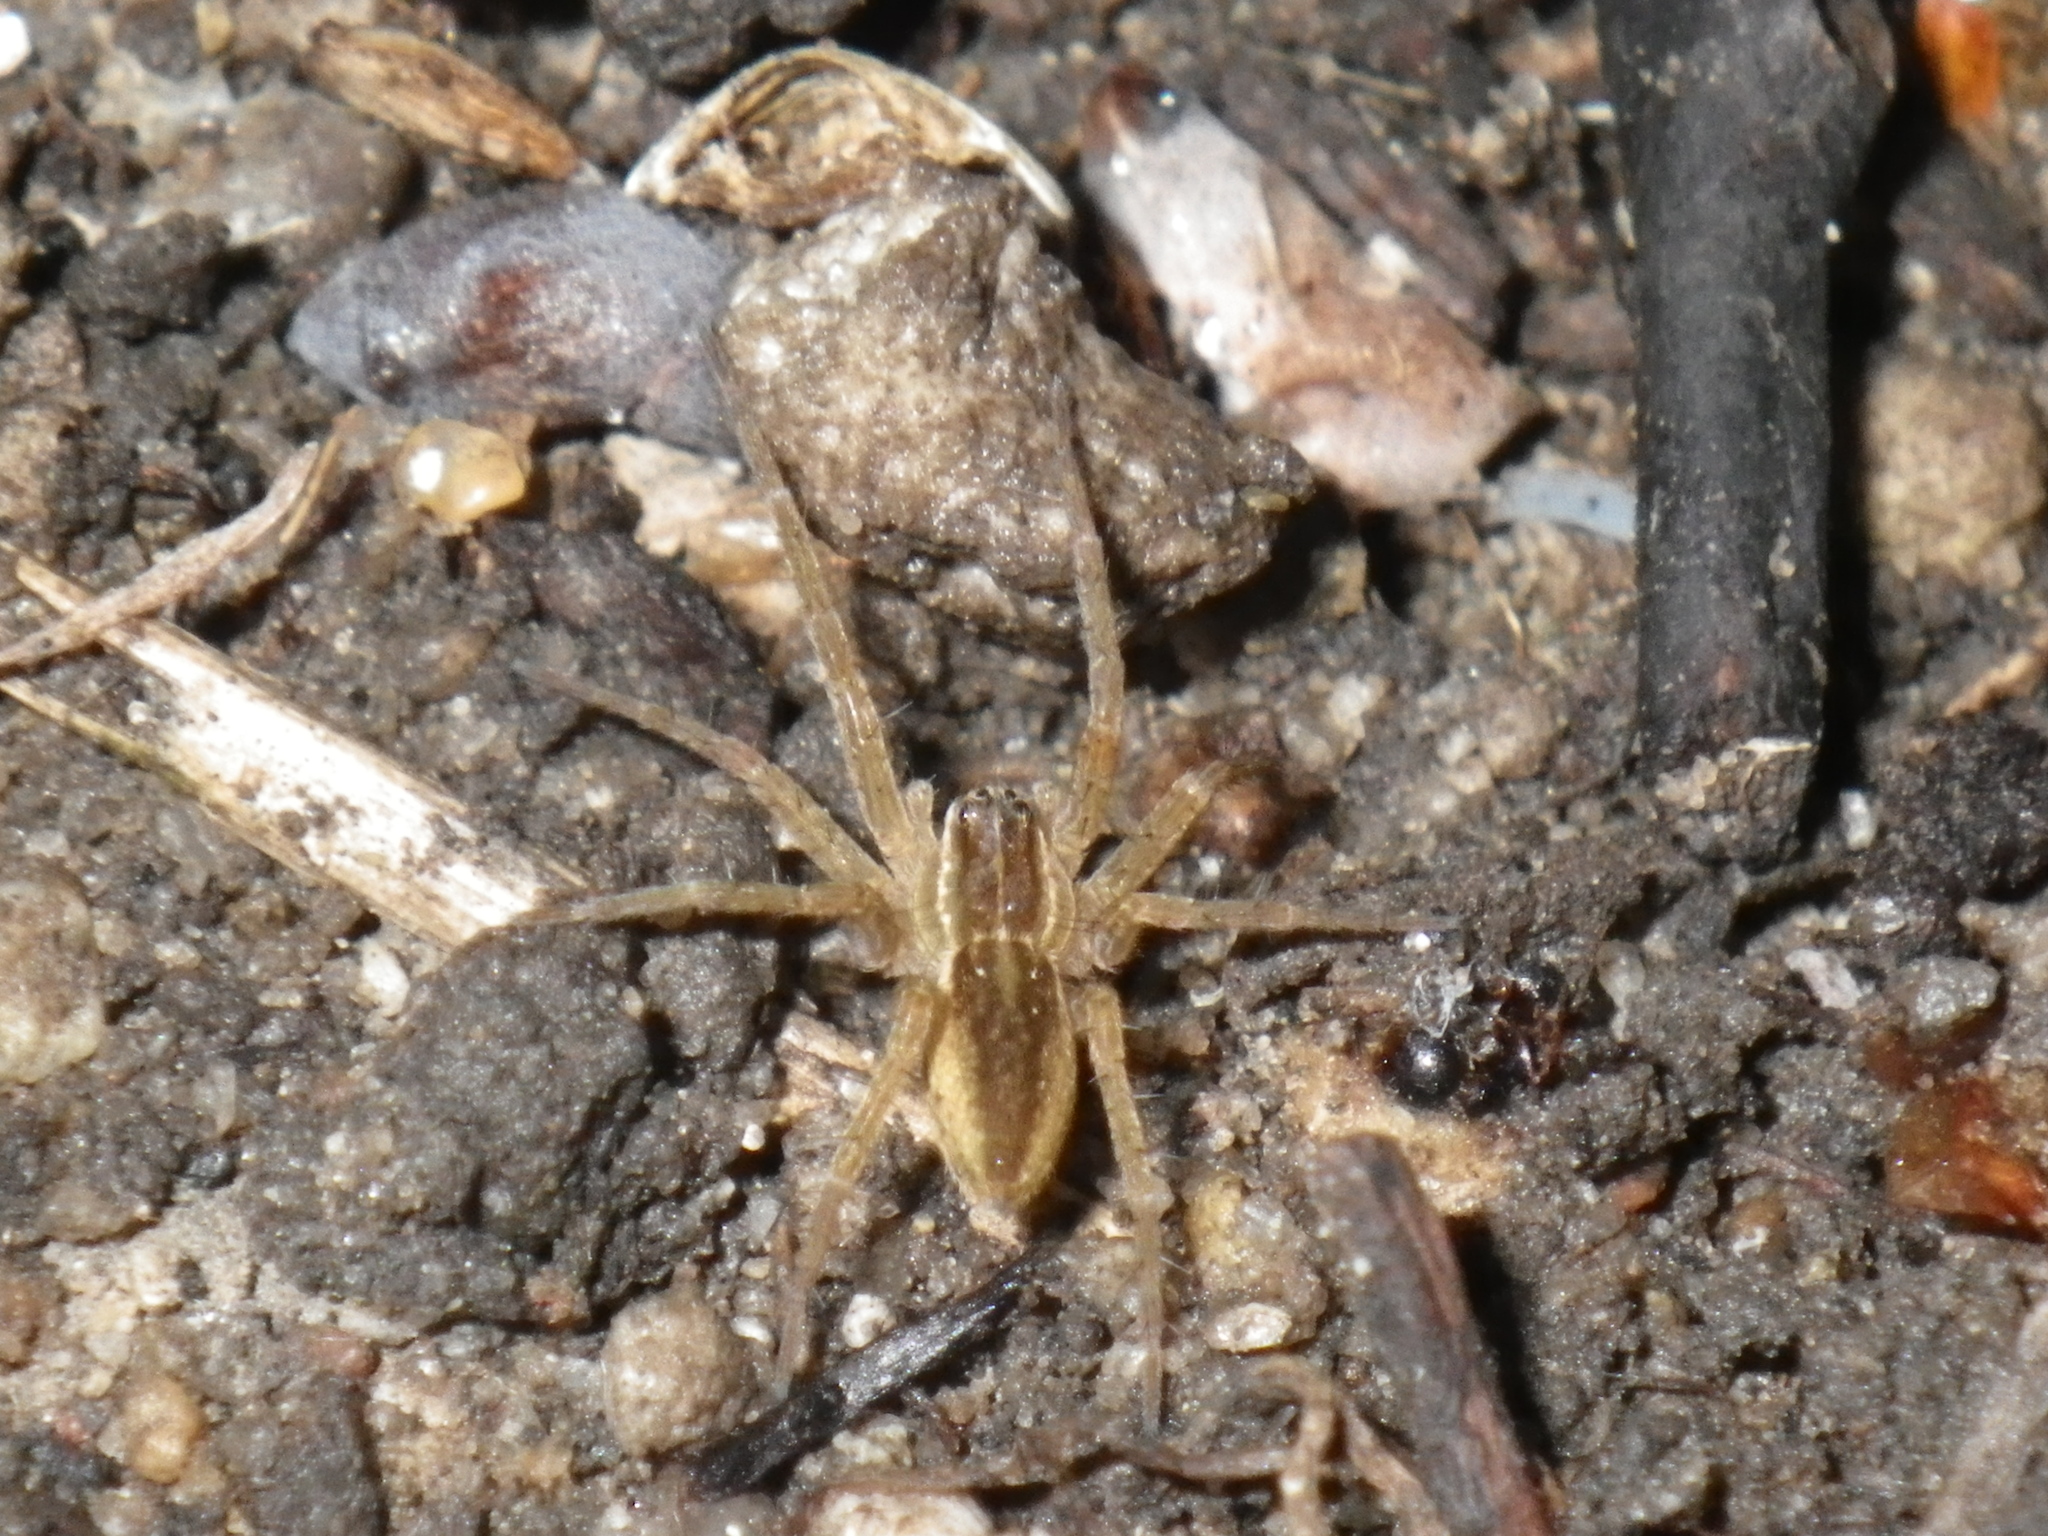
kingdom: Animalia
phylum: Arthropoda
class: Arachnida
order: Araneae
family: Pisauridae
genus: Dolomedes
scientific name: Dolomedes triton
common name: Six-spotted fishing spider
